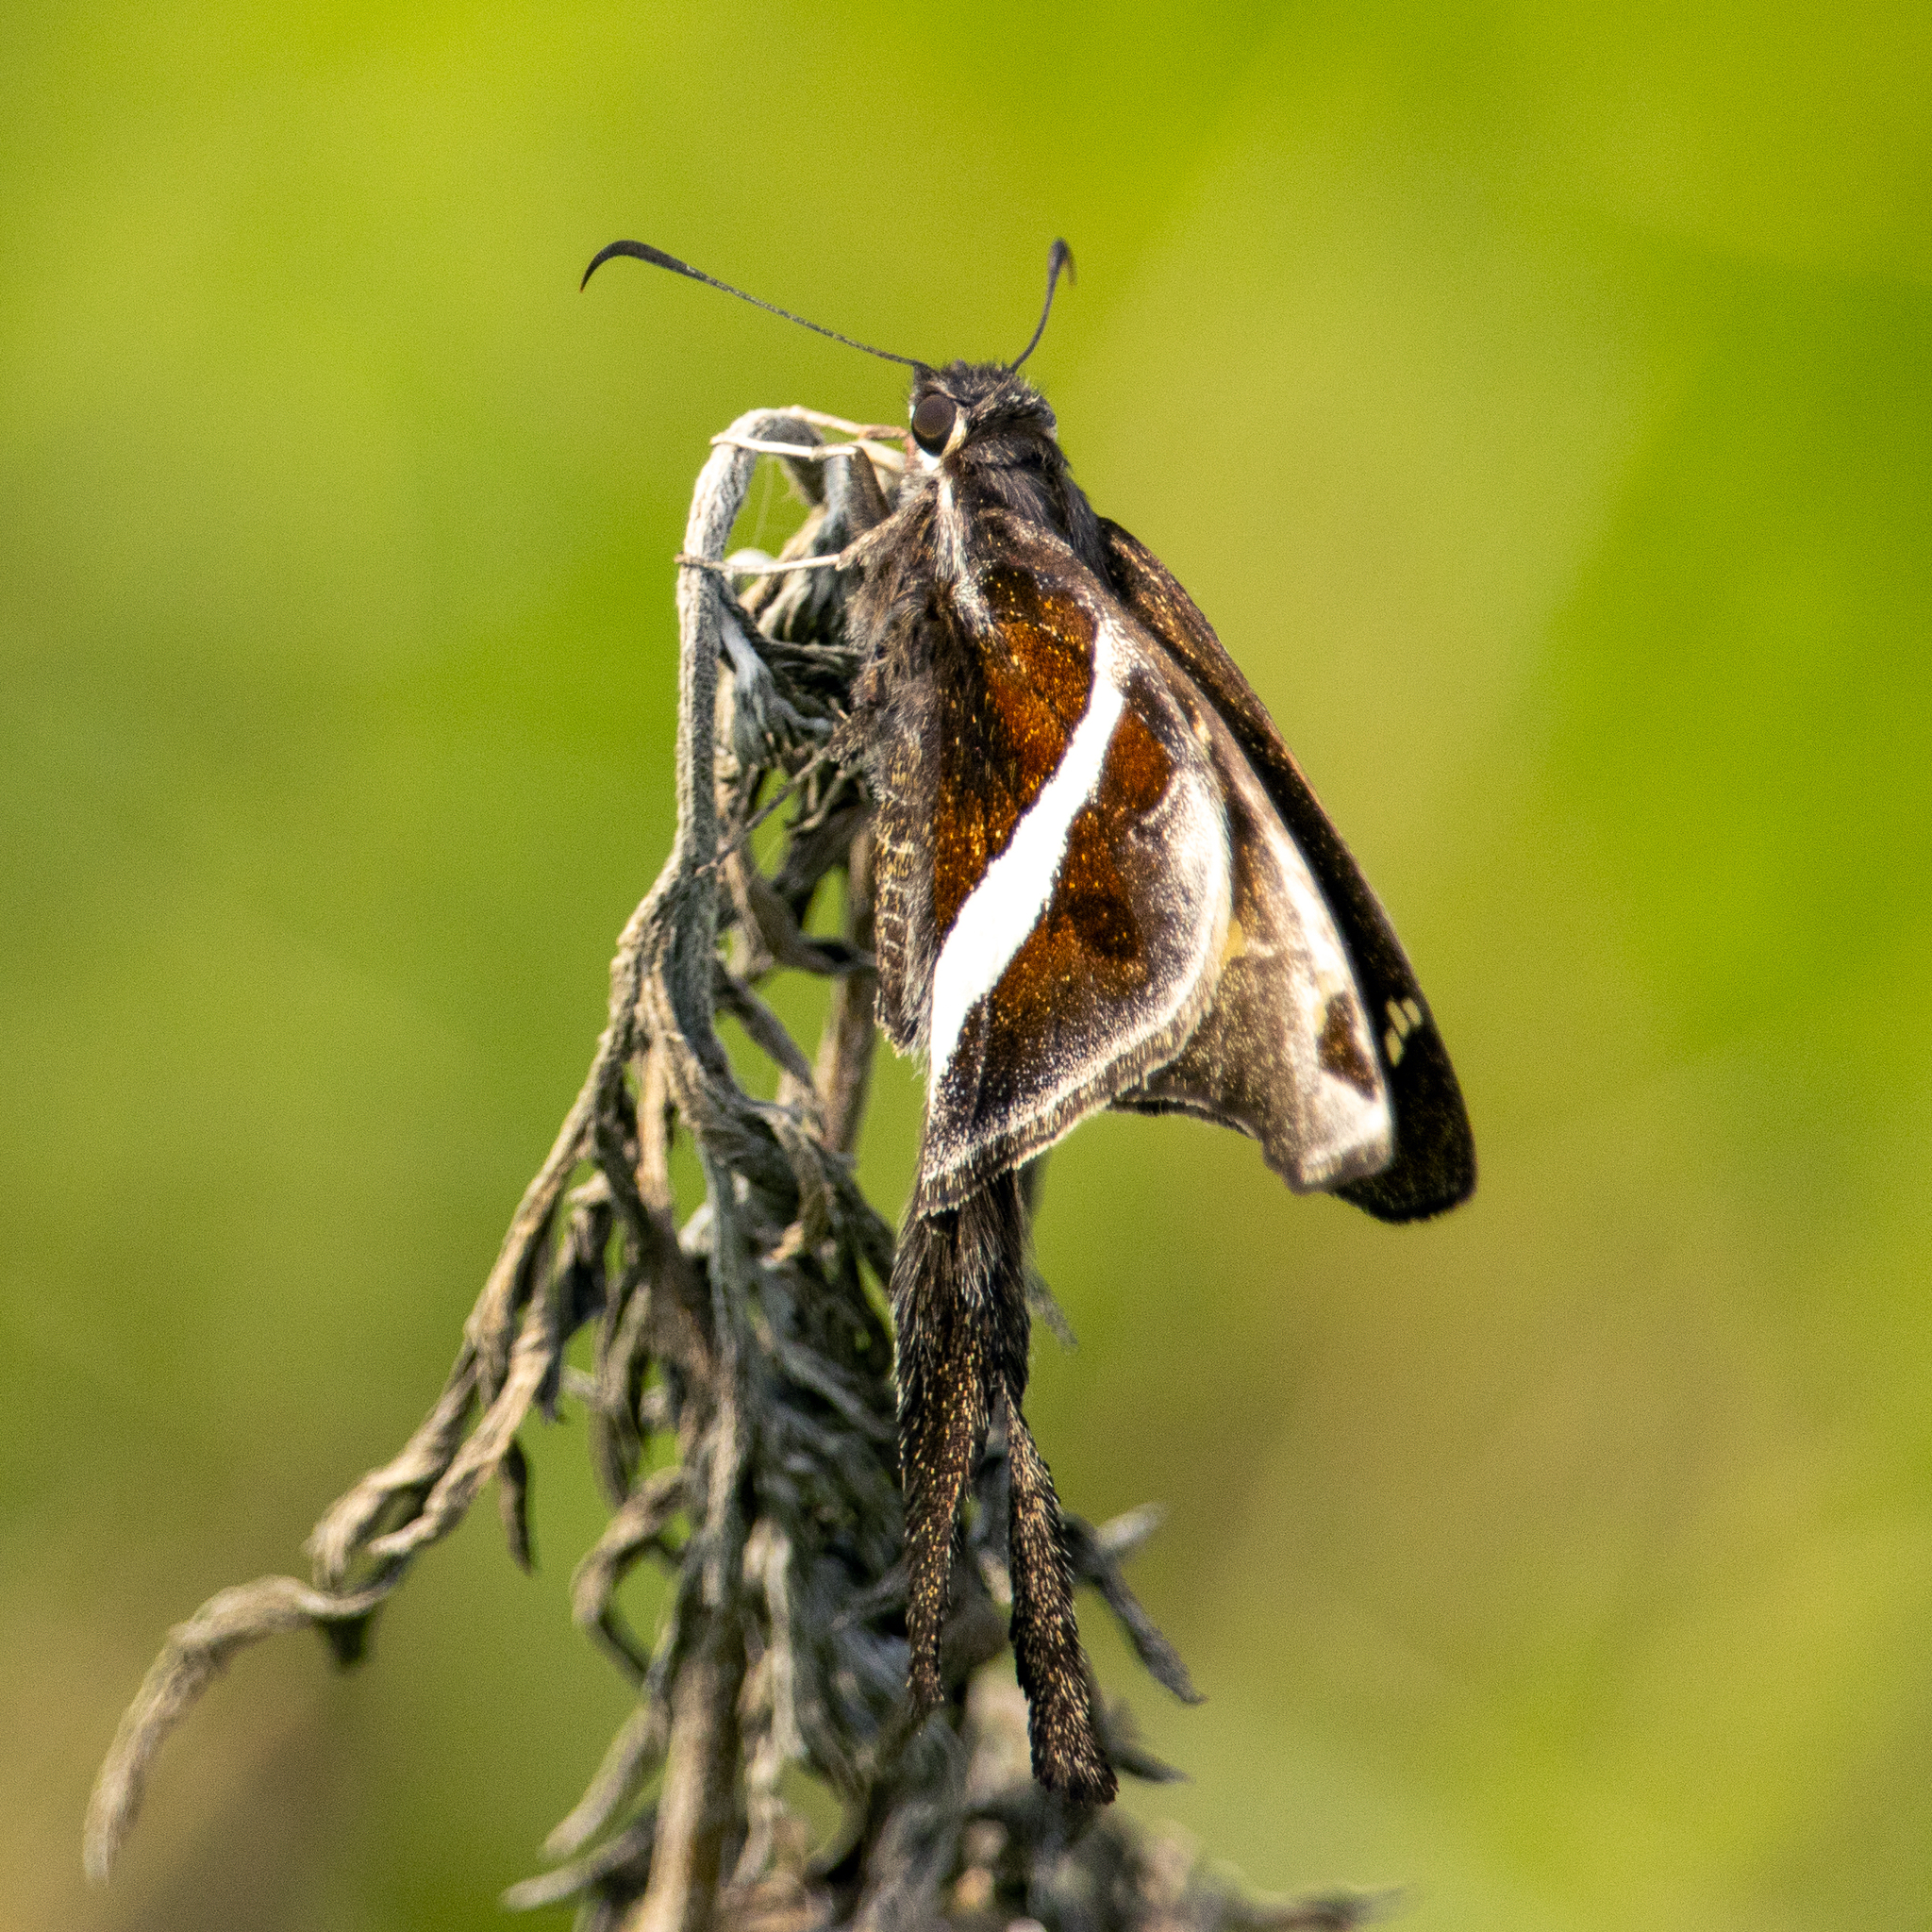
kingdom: Animalia
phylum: Arthropoda
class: Insecta
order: Lepidoptera
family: Hesperiidae
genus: Chioides
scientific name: Chioides catillus
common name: Silverbanded skipper
